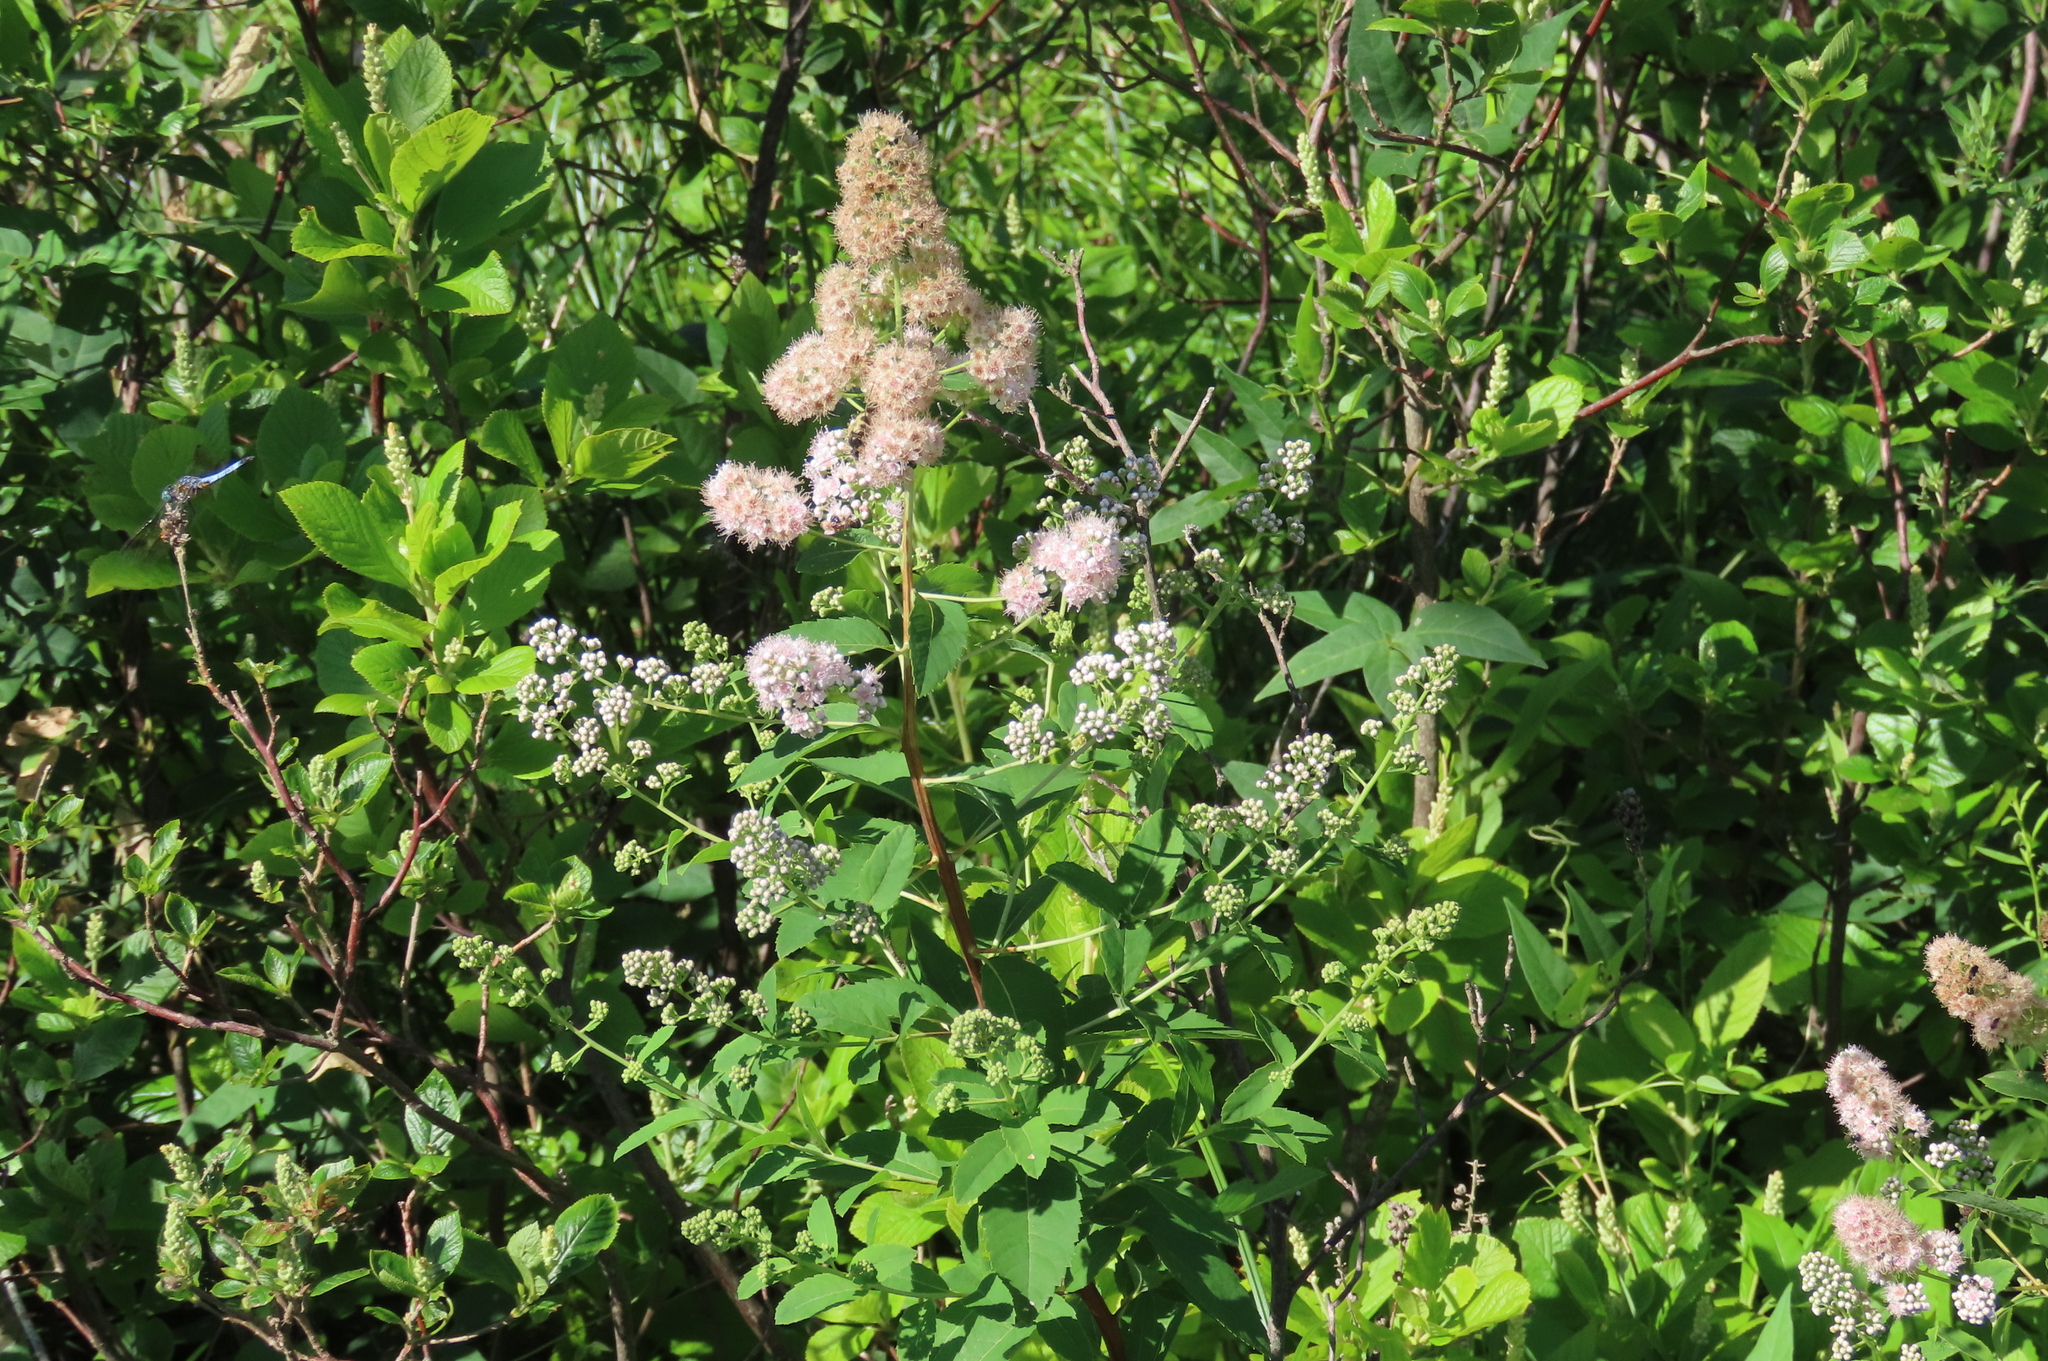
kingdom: Plantae
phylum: Tracheophyta
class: Magnoliopsida
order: Rosales
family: Rosaceae
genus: Spiraea
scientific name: Spiraea alba
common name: Pale bridewort
